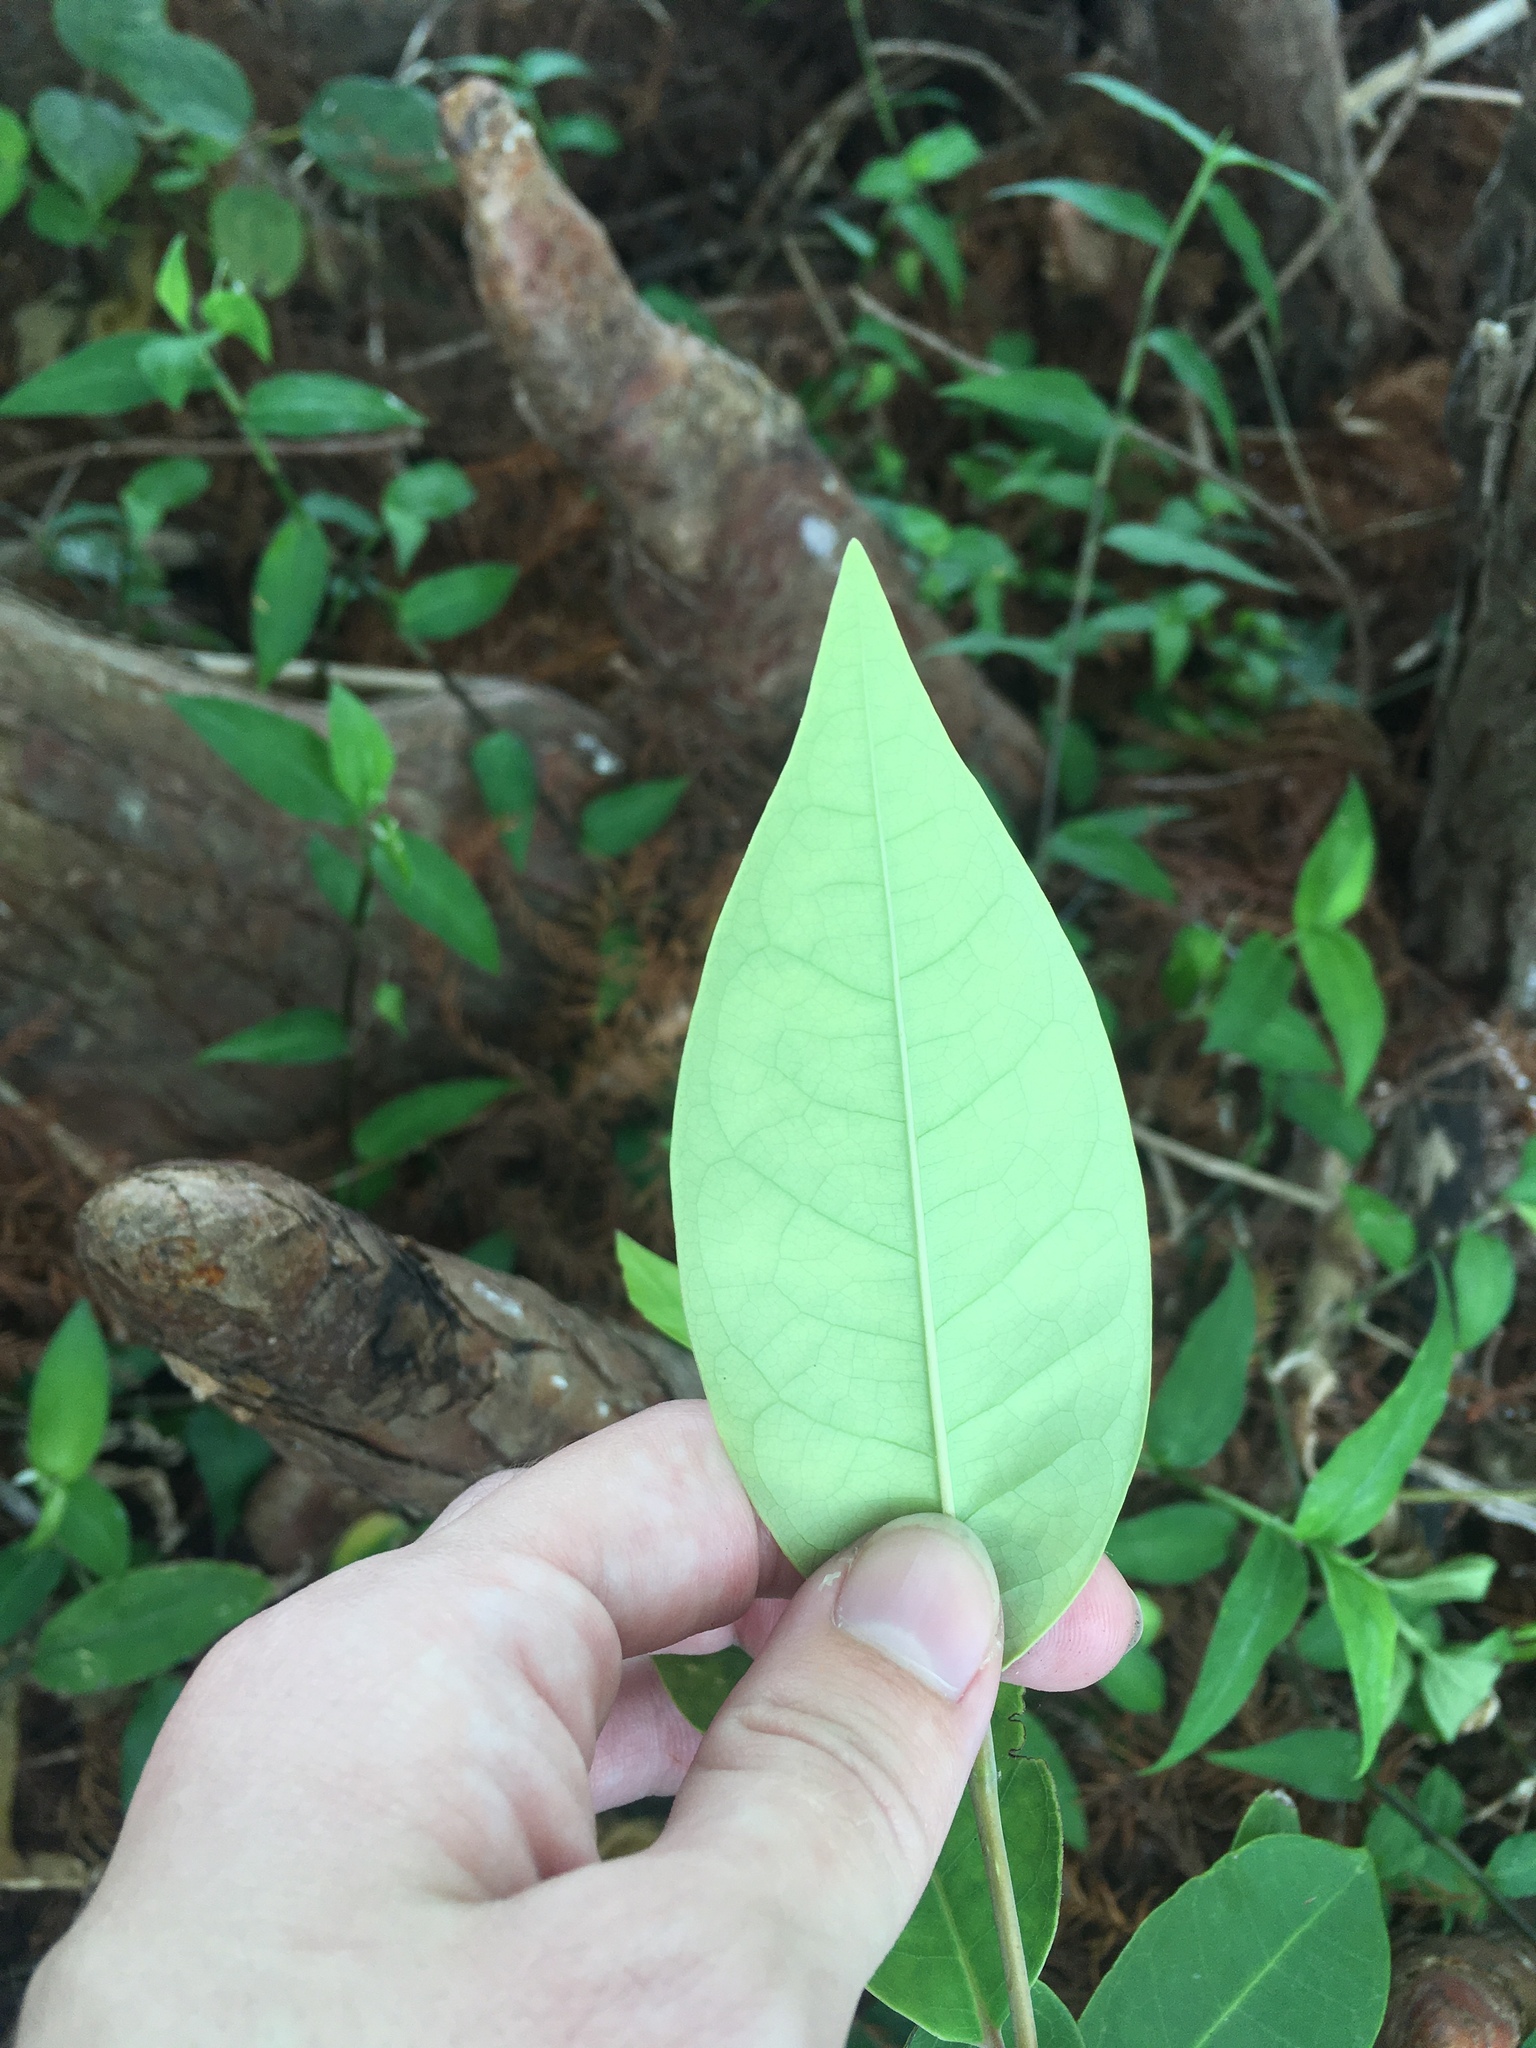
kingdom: Plantae
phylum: Tracheophyta
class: Magnoliopsida
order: Magnoliales
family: Annonaceae
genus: Annona
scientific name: Annona glabra
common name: Monkey apple
